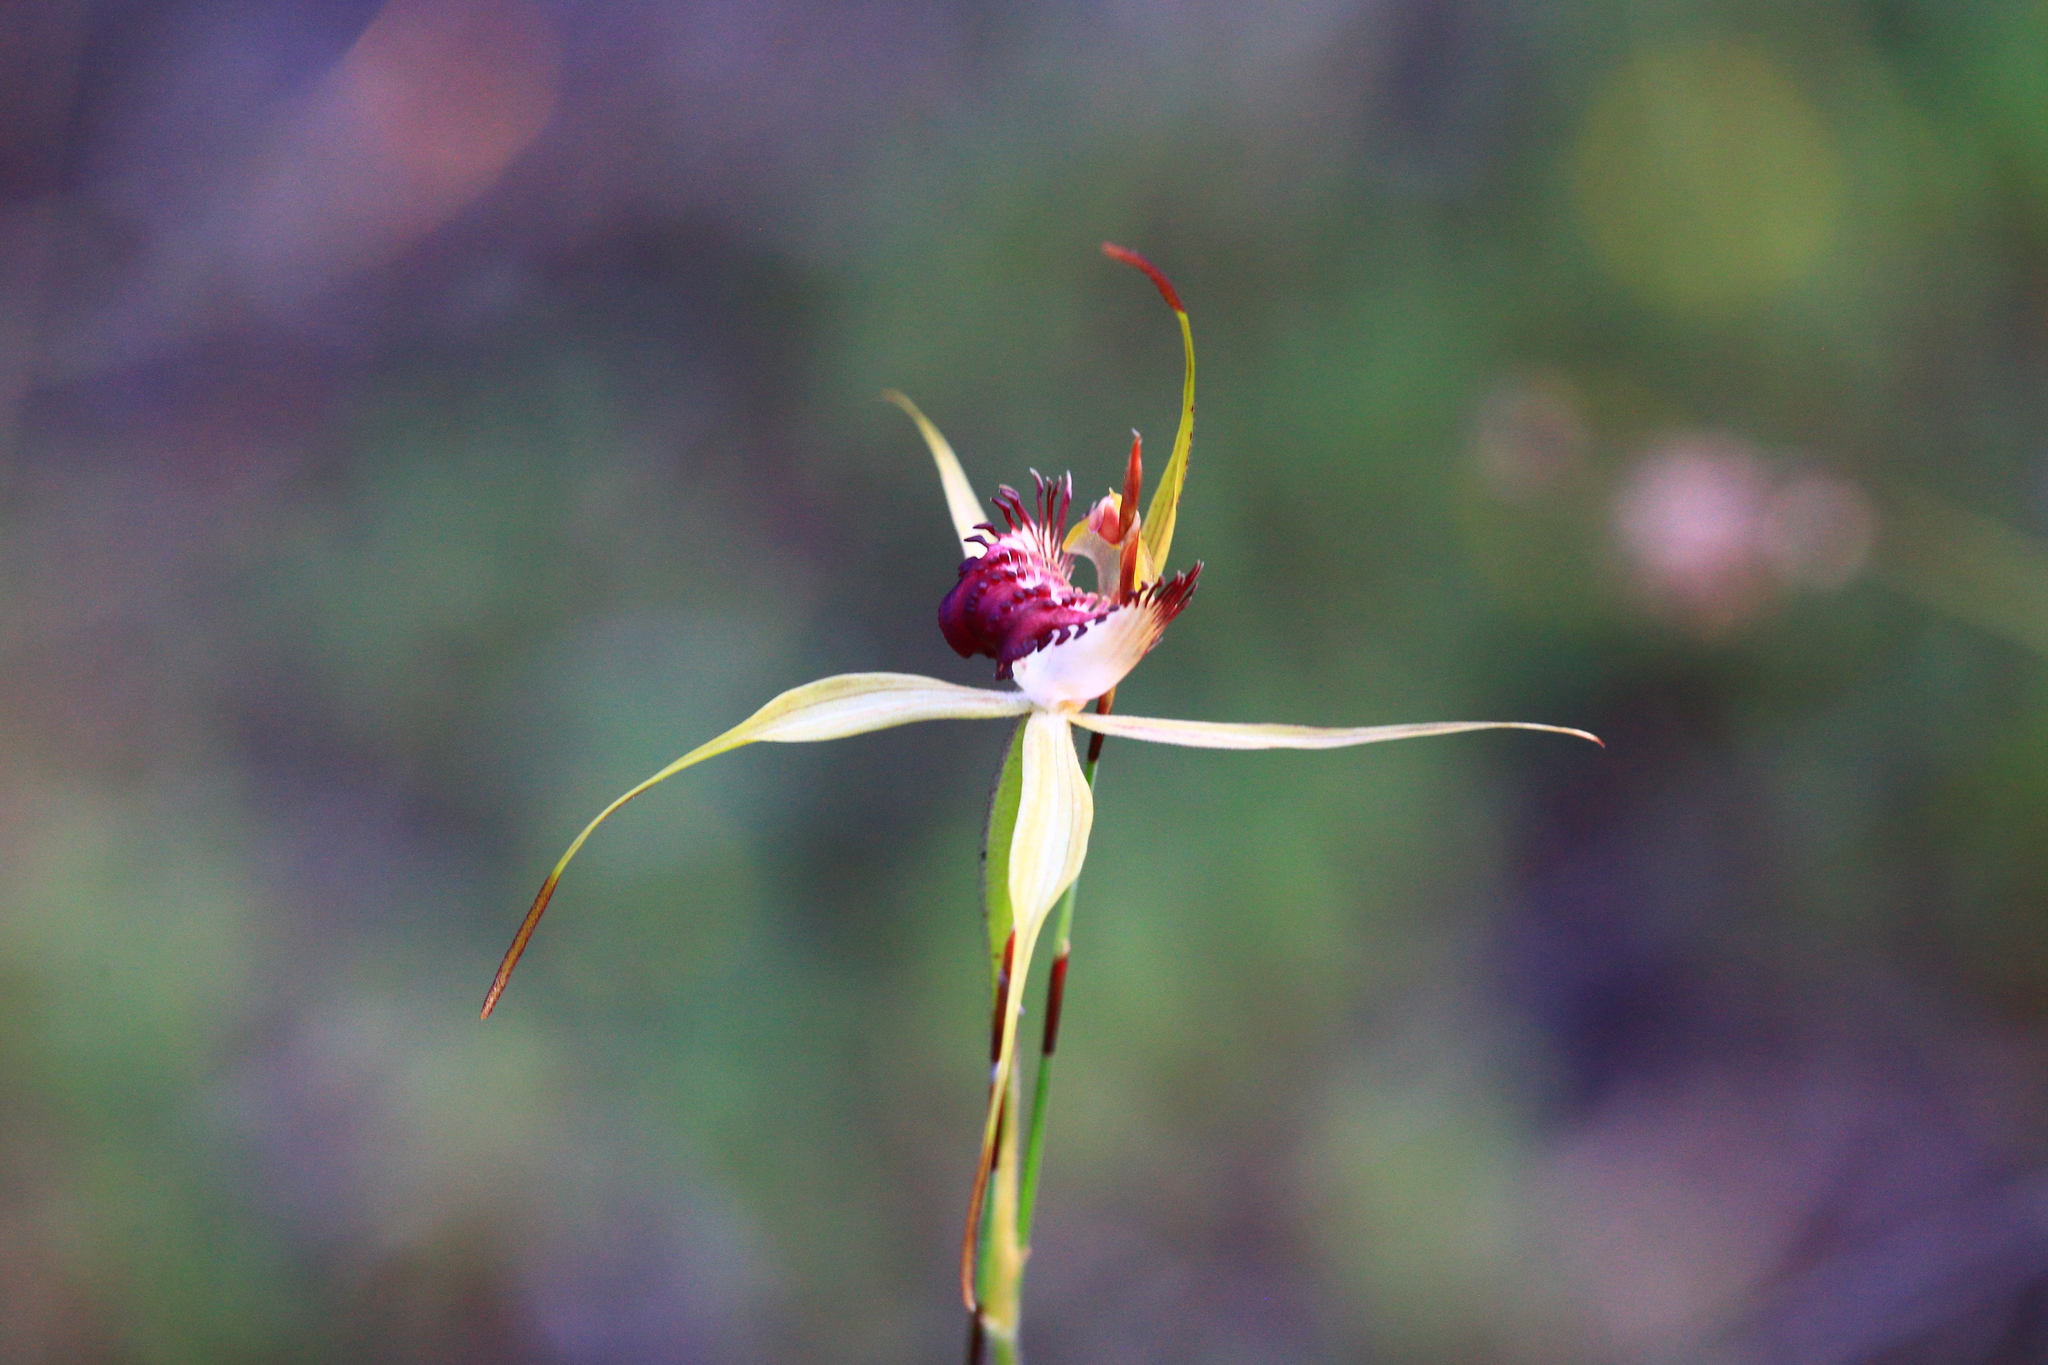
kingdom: Plantae
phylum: Tracheophyta
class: Liliopsida
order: Asparagales
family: Orchidaceae
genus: Caladenia
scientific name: Caladenia paludosa
